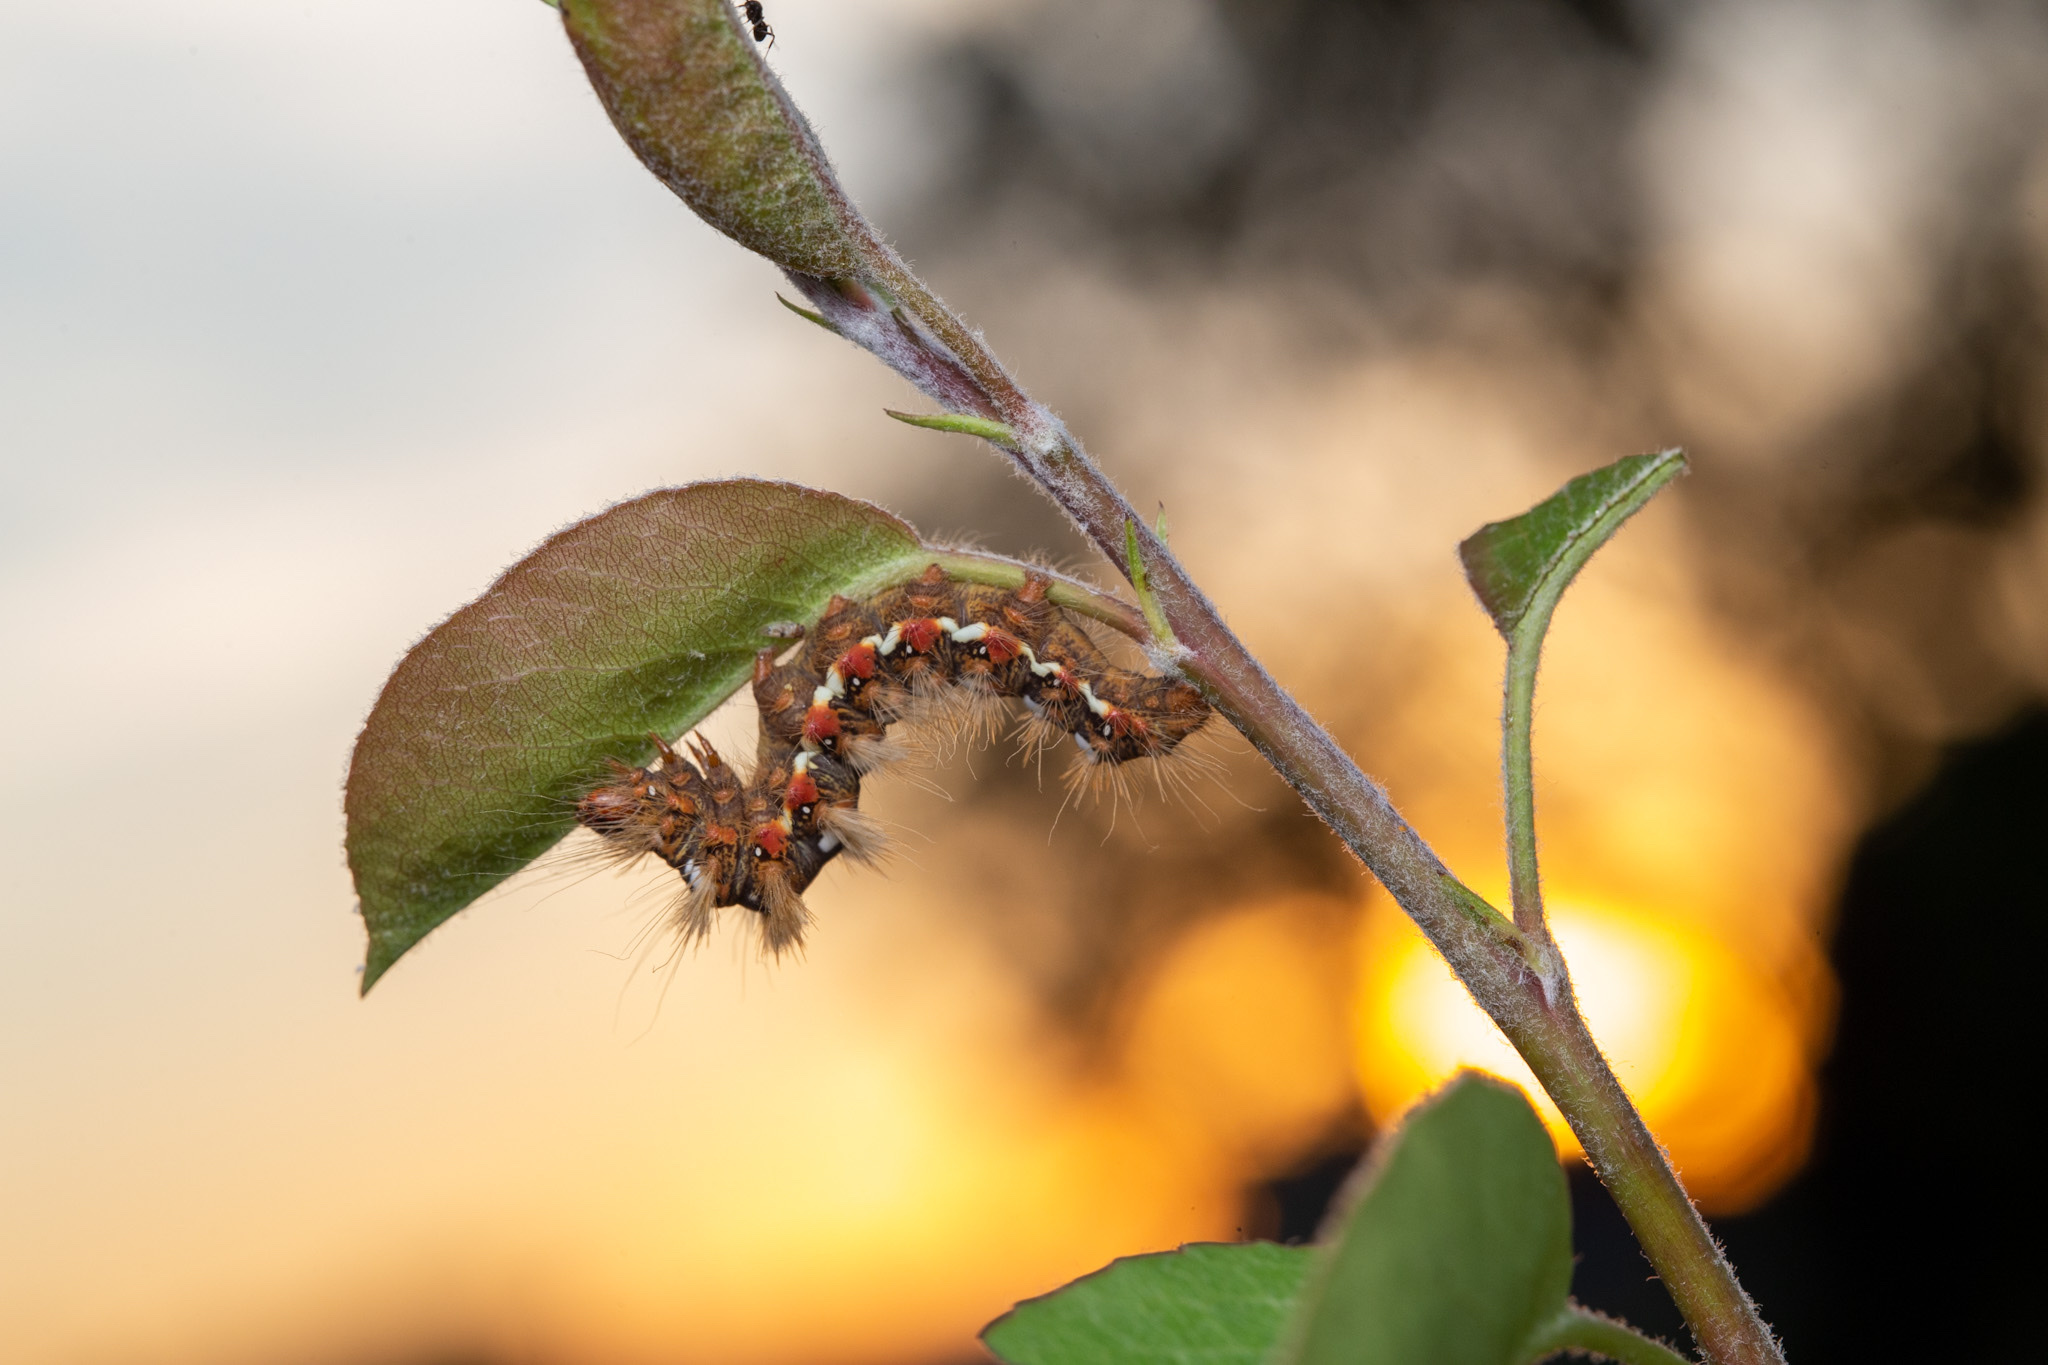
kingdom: Animalia
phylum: Arthropoda
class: Insecta
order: Lepidoptera
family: Noctuidae
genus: Acronicta
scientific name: Acronicta rumicis
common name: Knot grass
